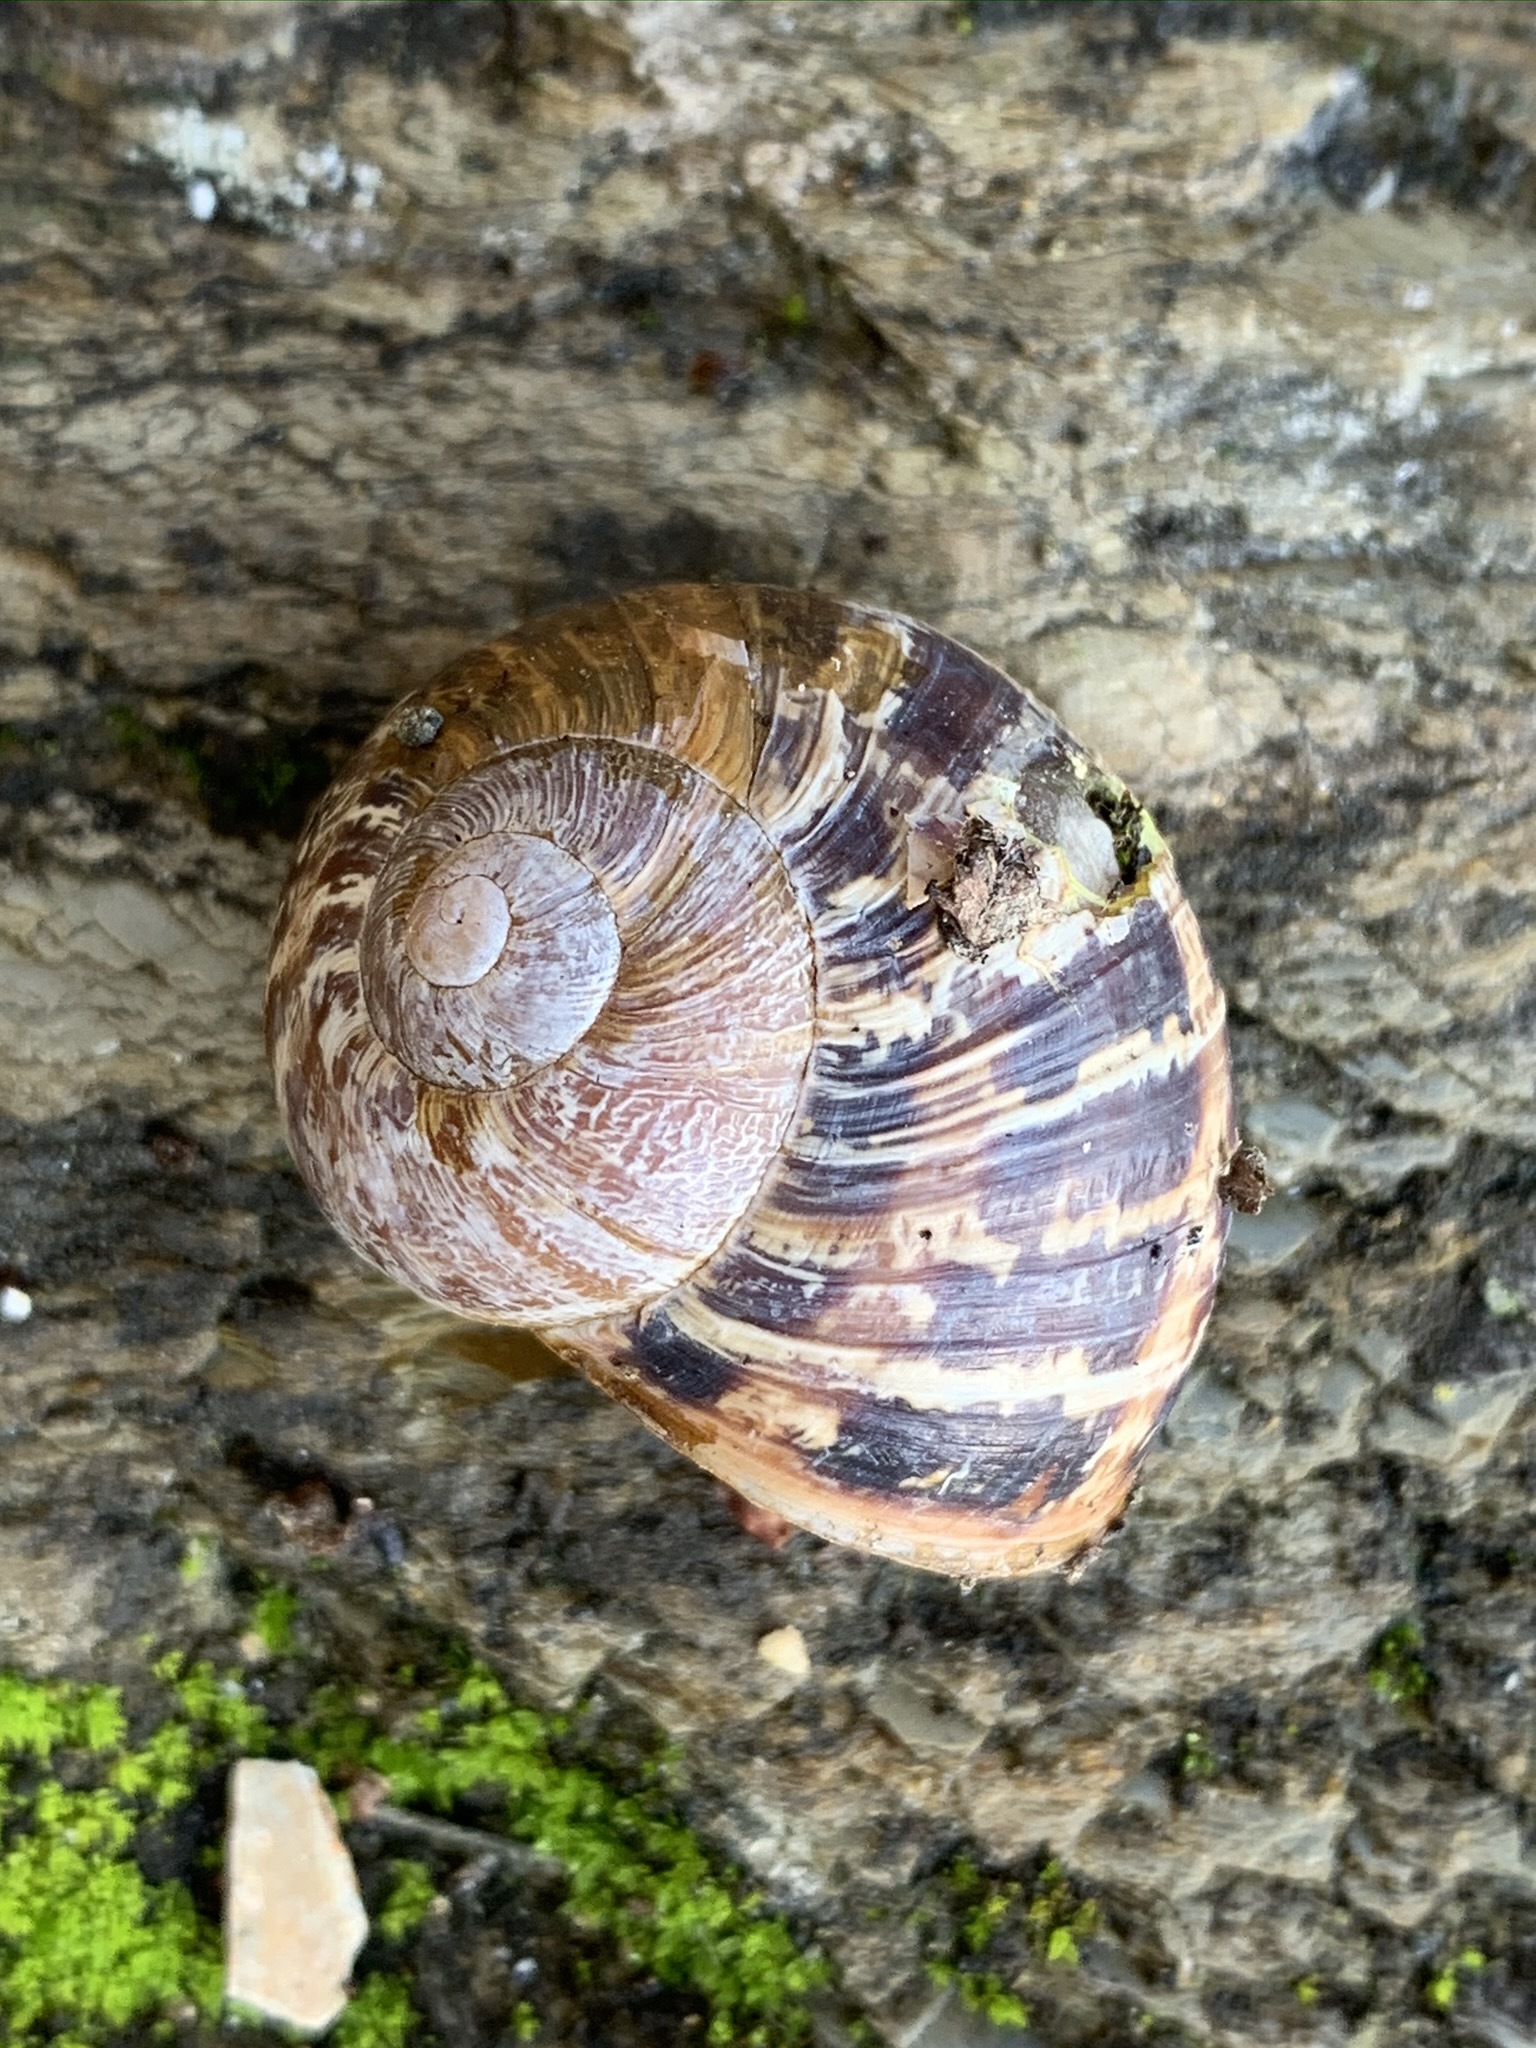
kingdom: Animalia
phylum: Mollusca
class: Gastropoda
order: Stylommatophora
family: Helicidae
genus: Cornu
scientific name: Cornu aspersum
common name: Brown garden snail
